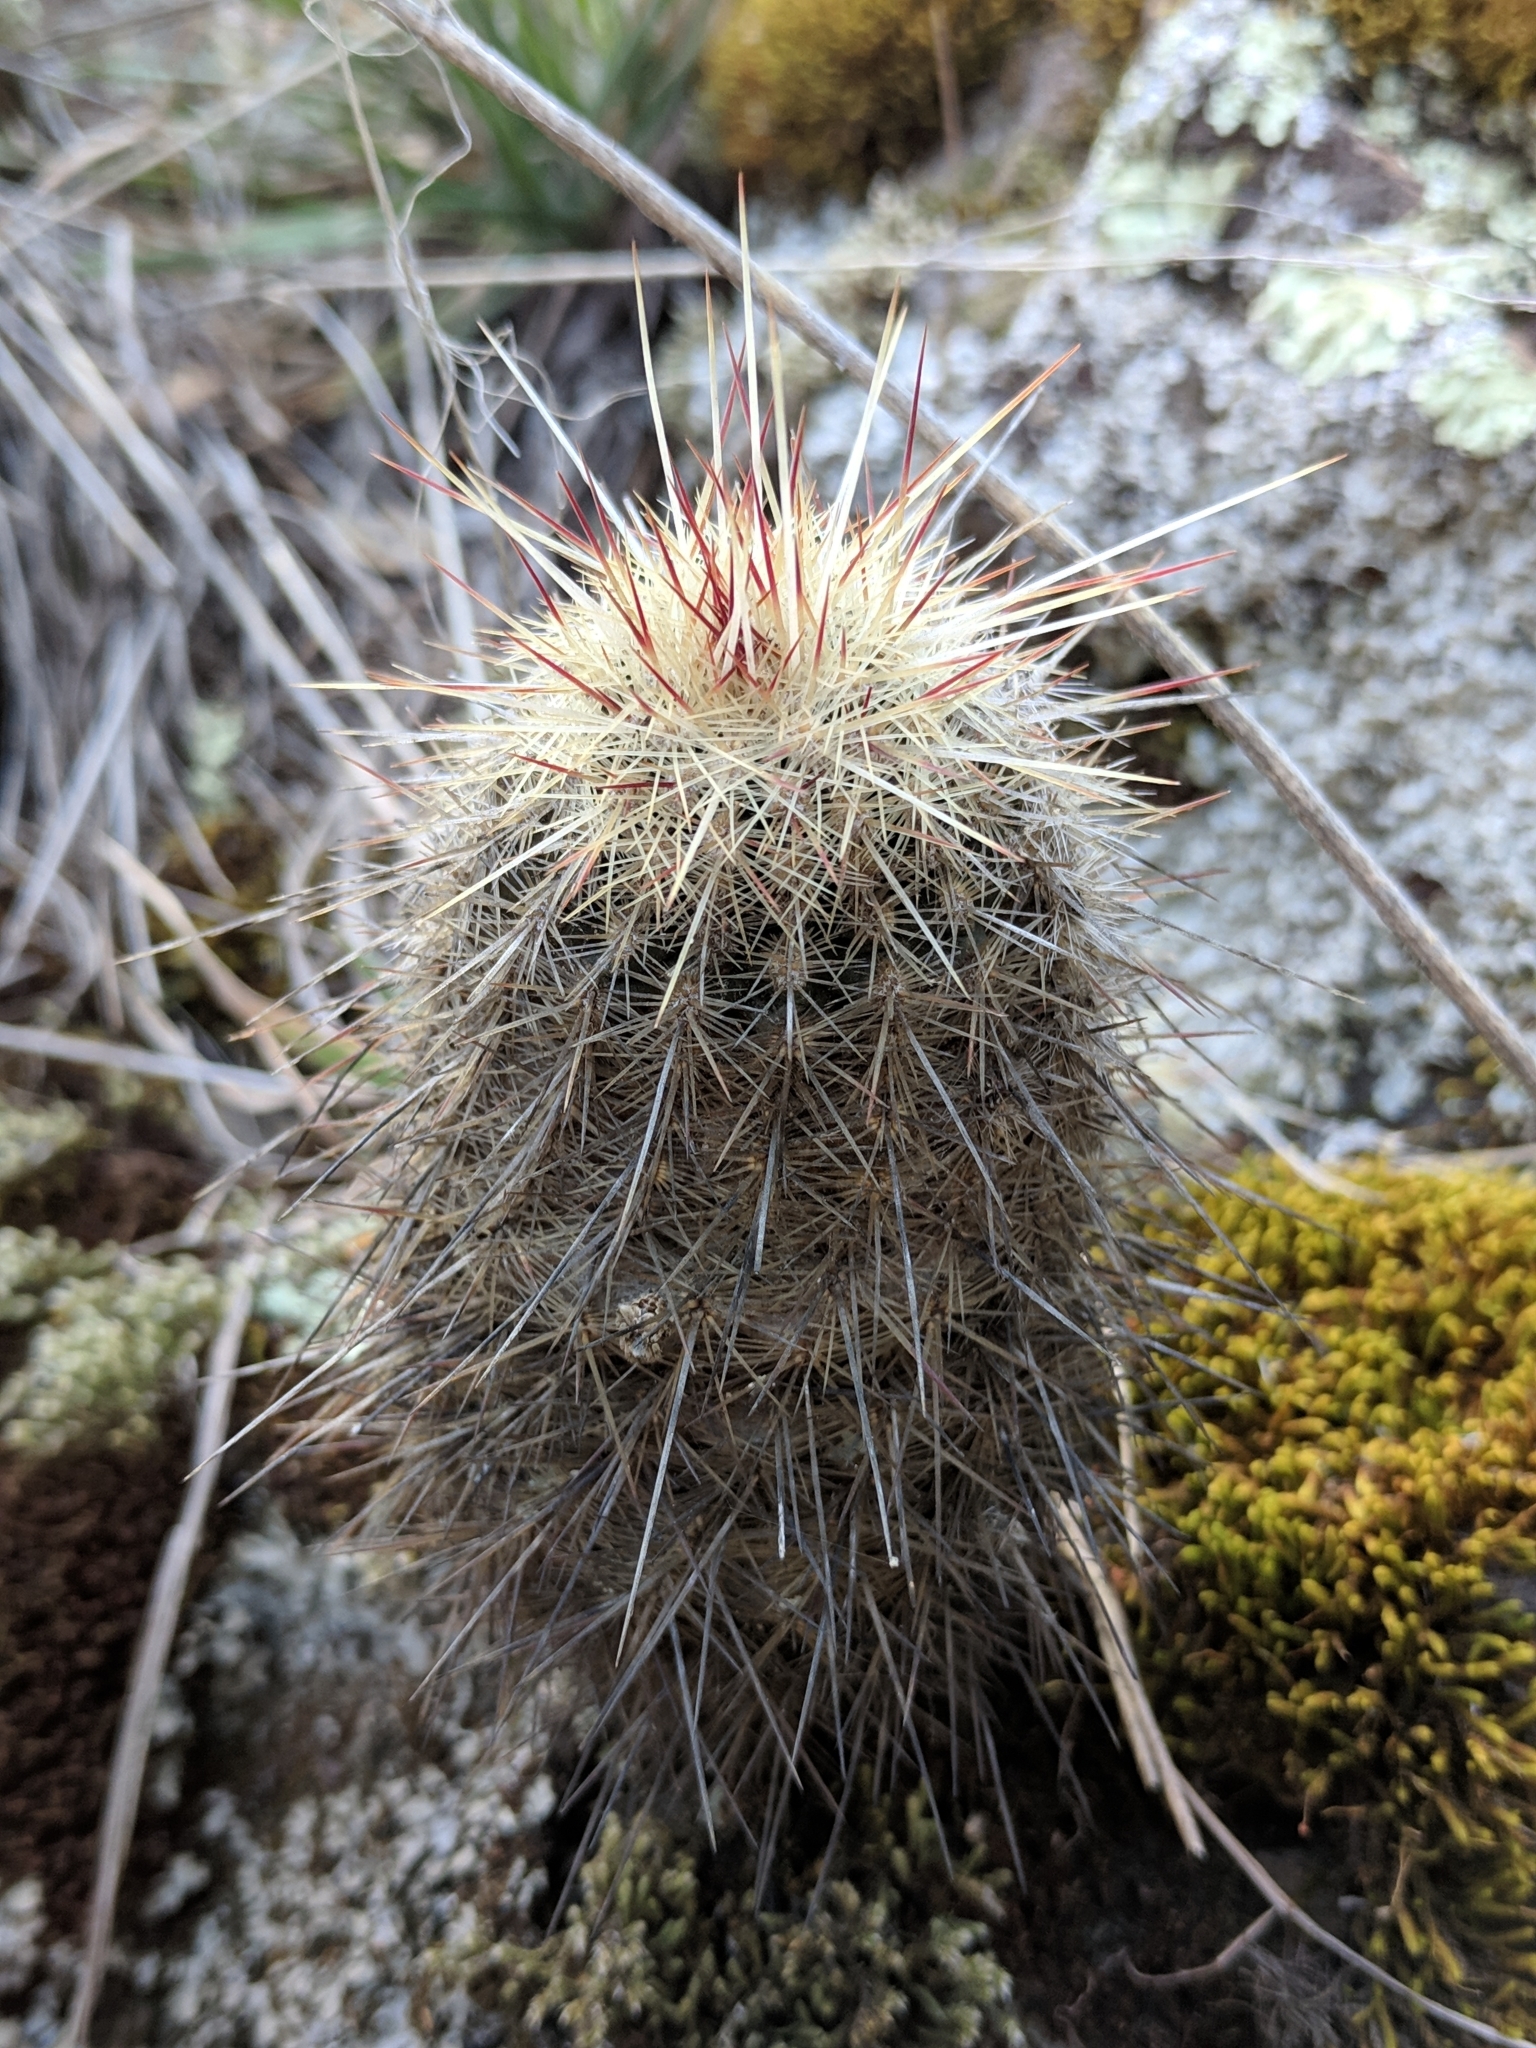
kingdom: Plantae
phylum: Tracheophyta
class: Magnoliopsida
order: Caryophyllales
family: Cactaceae
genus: Echinocereus
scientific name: Echinocereus
